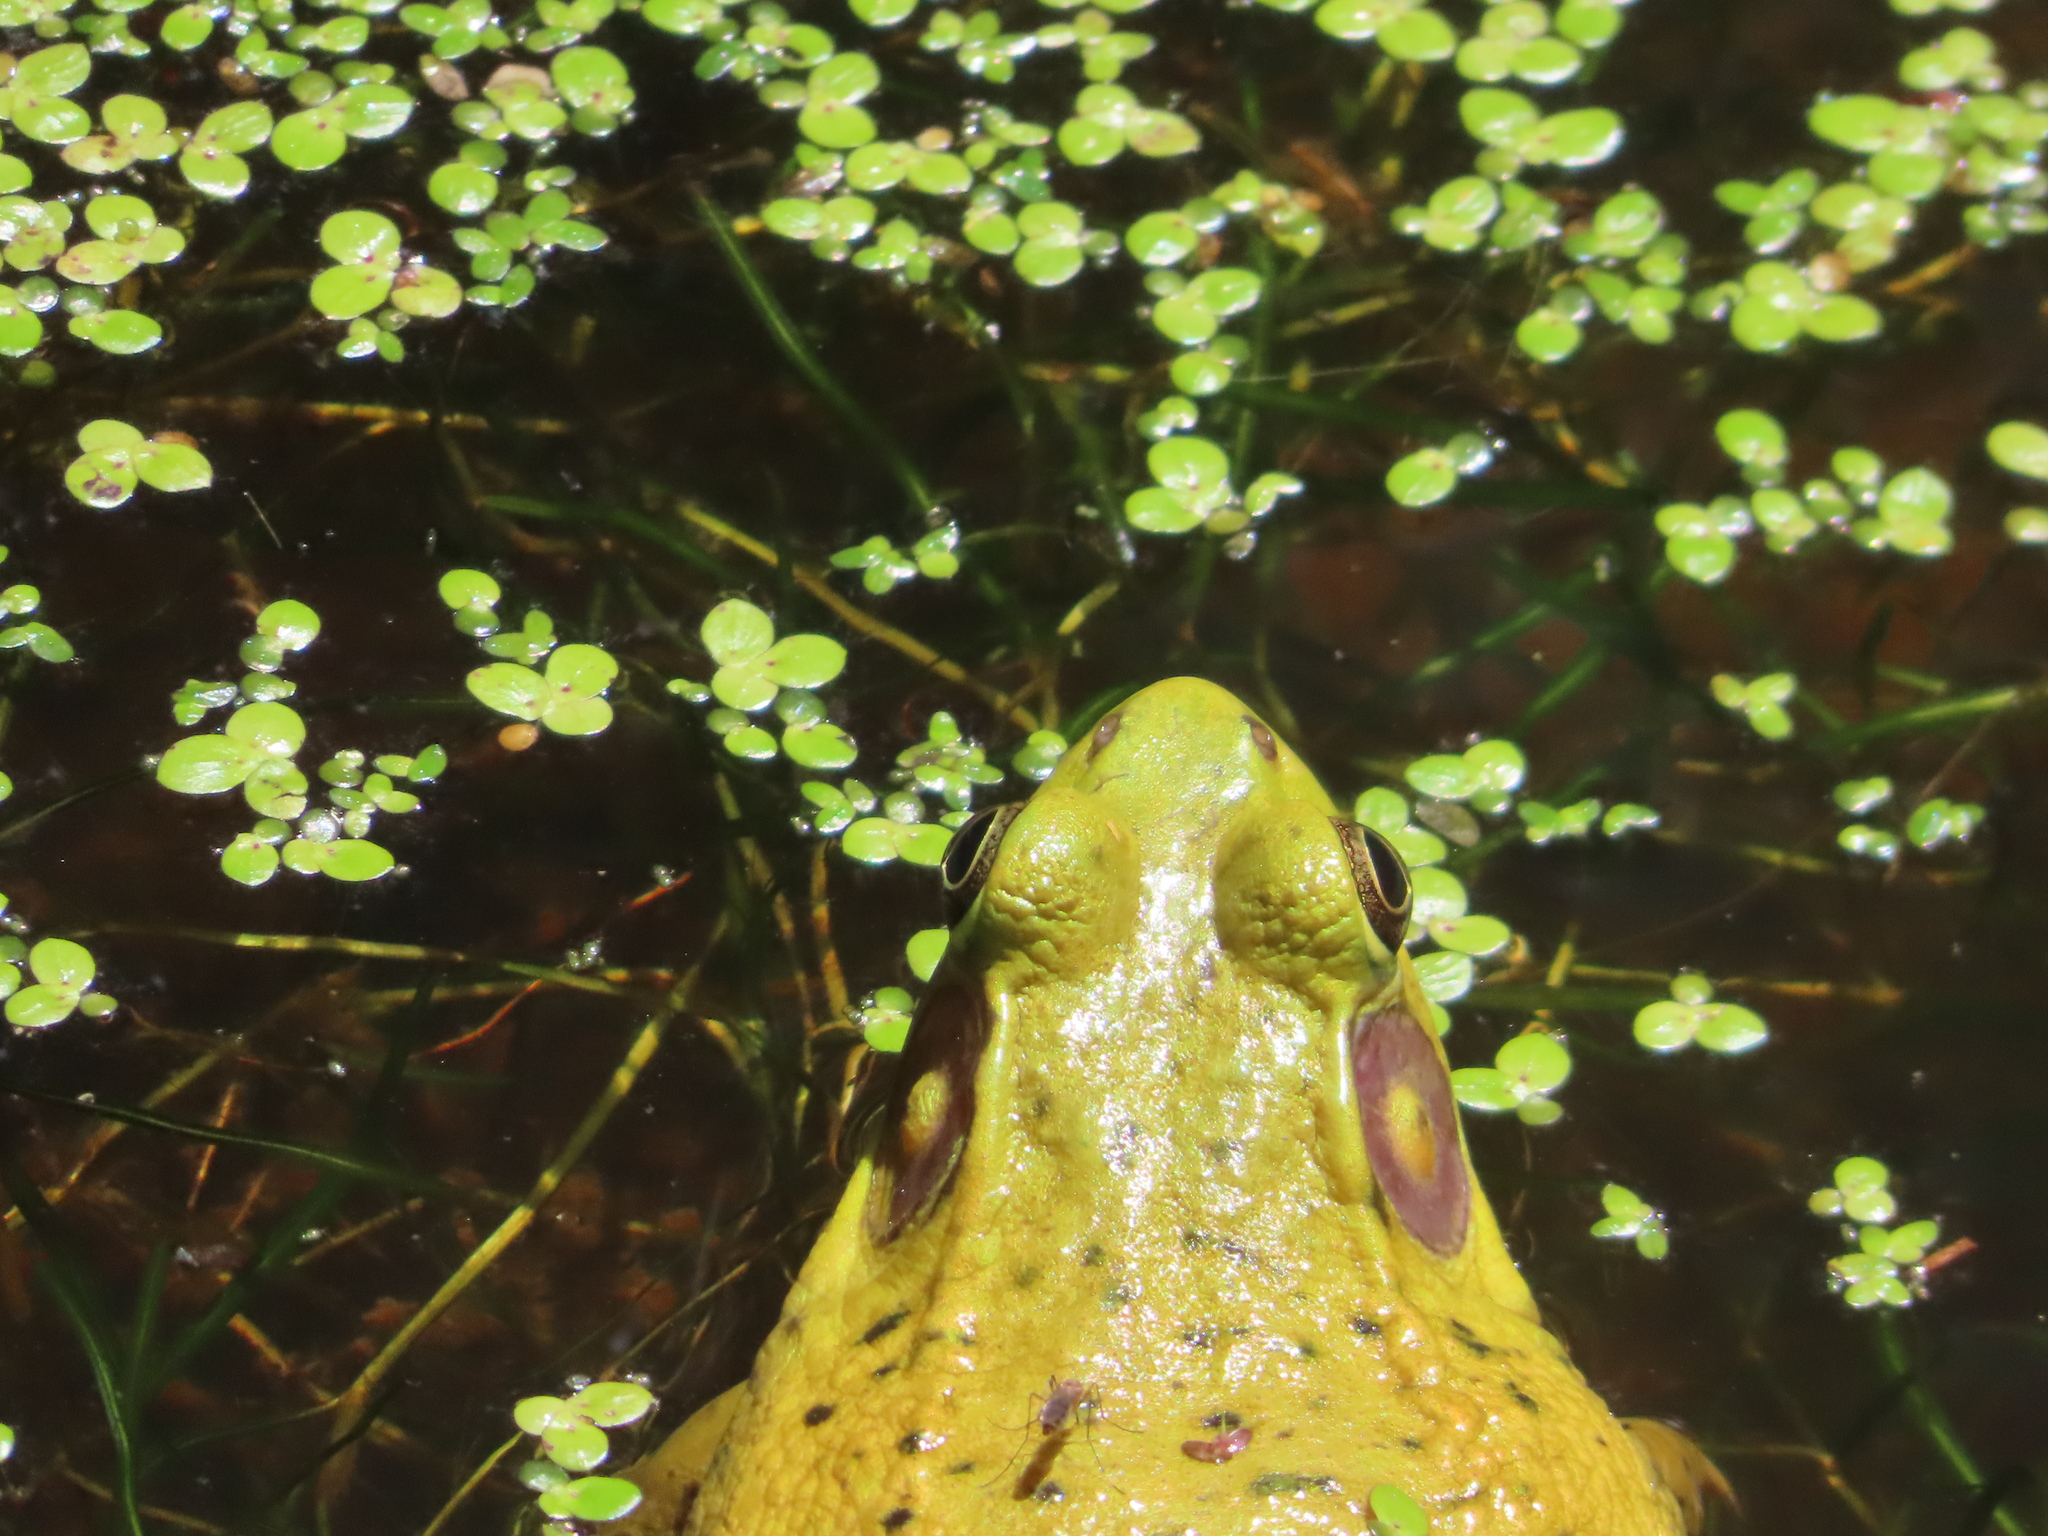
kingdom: Animalia
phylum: Chordata
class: Amphibia
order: Anura
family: Ranidae
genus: Lithobates
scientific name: Lithobates clamitans
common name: Green frog
